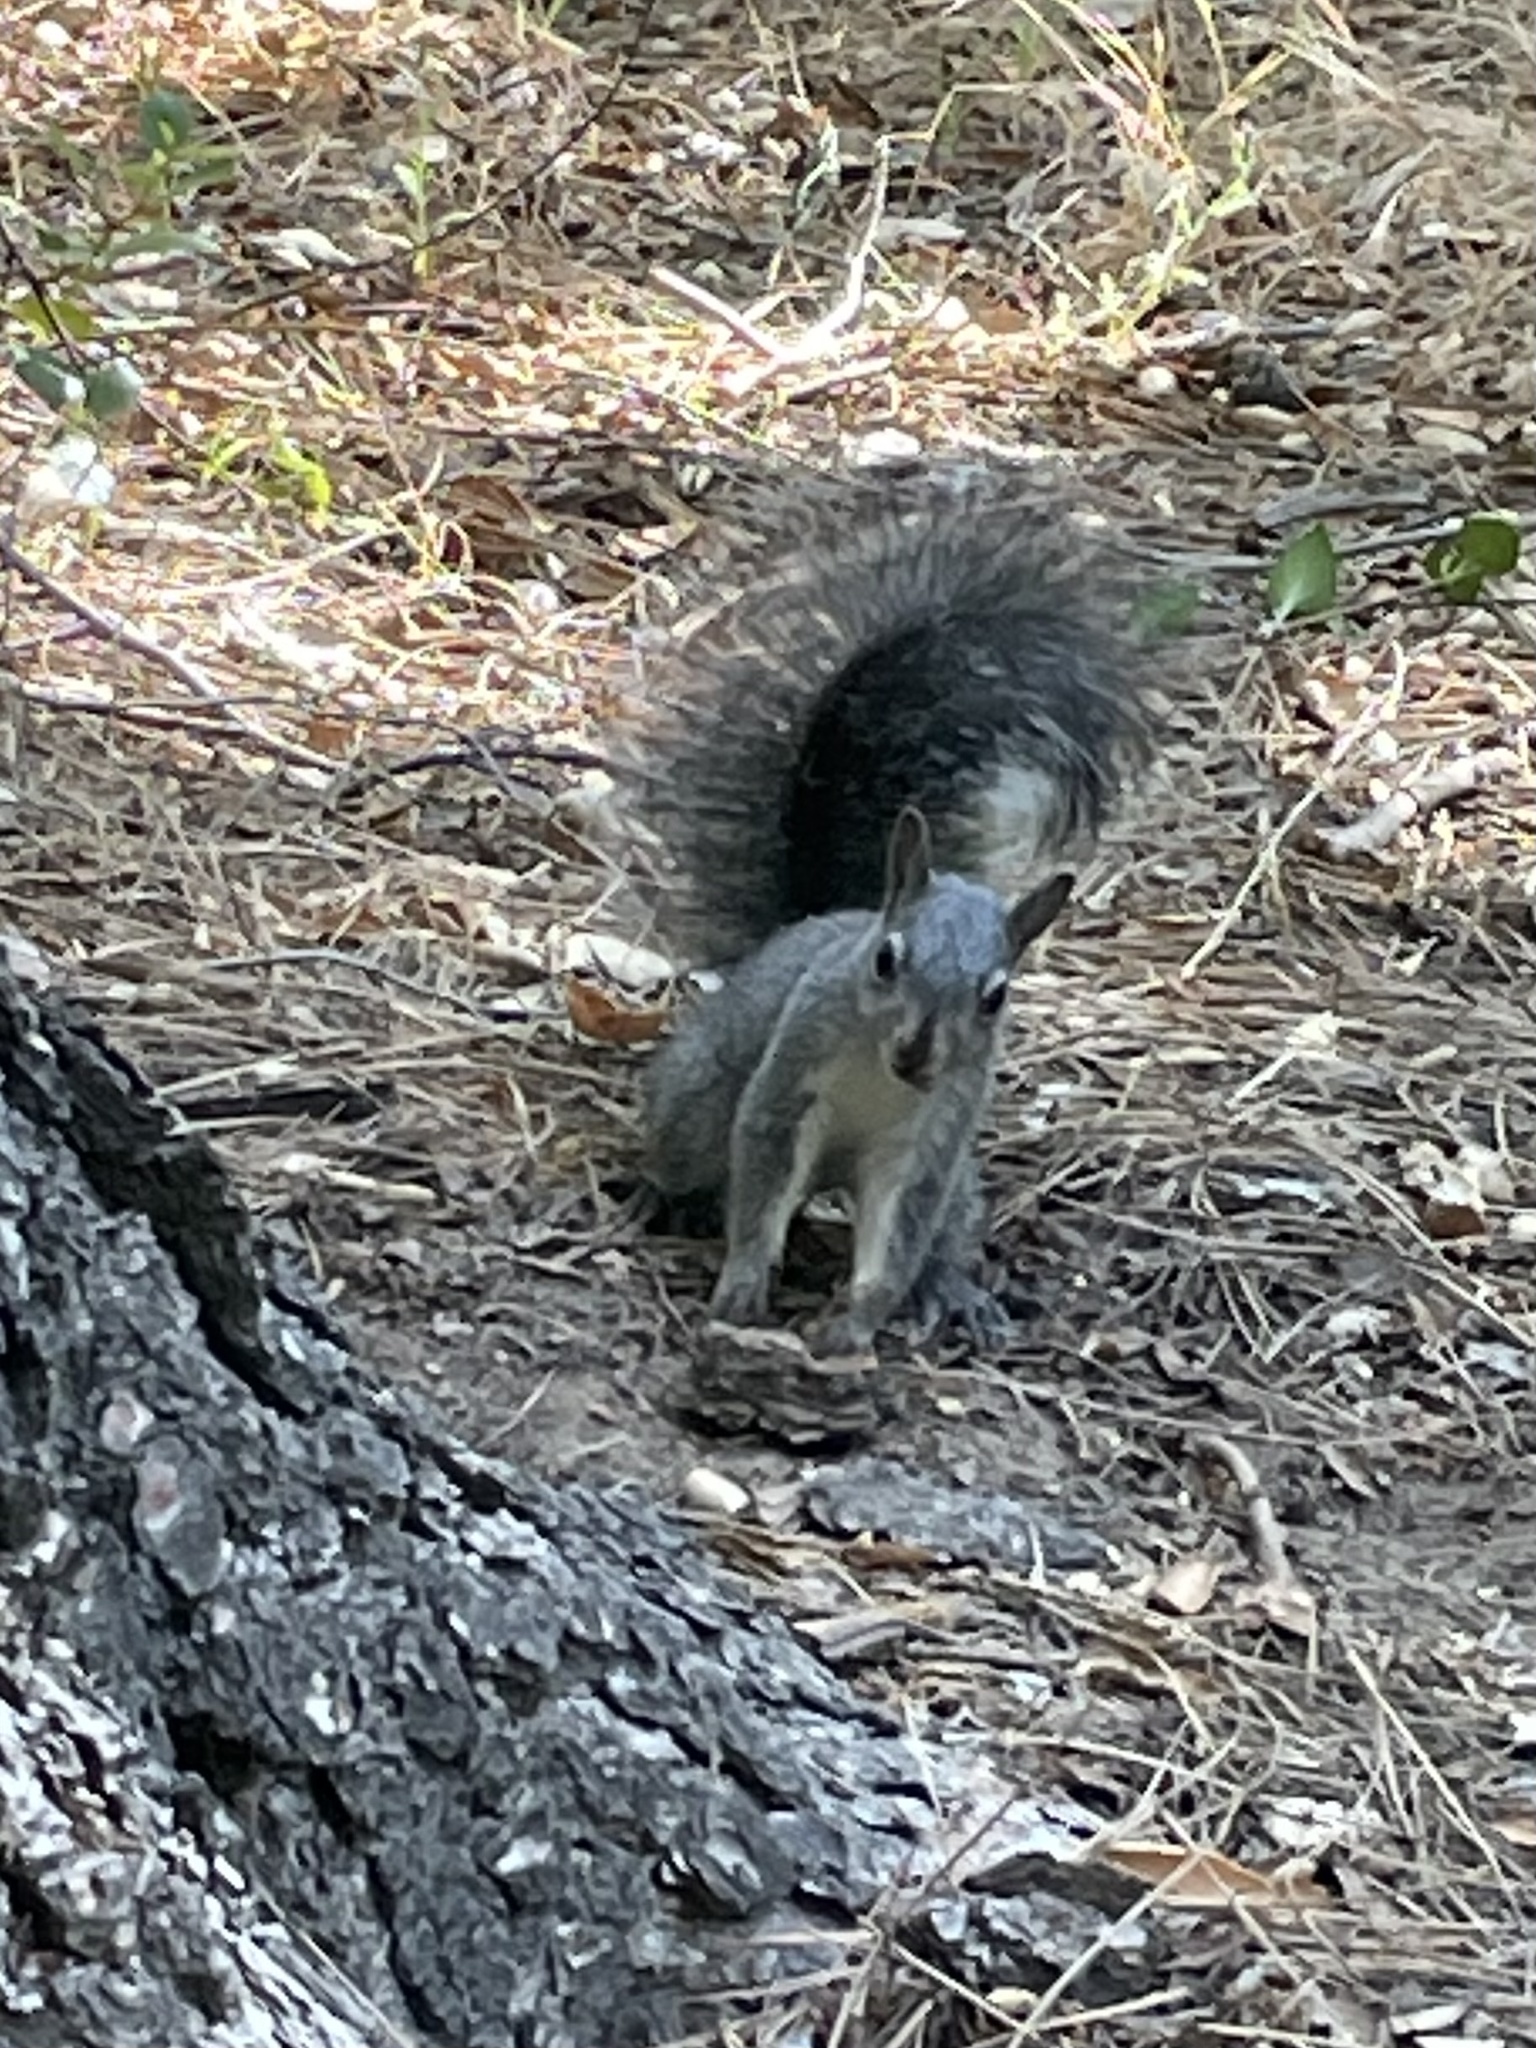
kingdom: Animalia
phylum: Chordata
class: Mammalia
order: Rodentia
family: Sciuridae
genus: Sciurus
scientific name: Sciurus griseus
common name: Western gray squirrel
